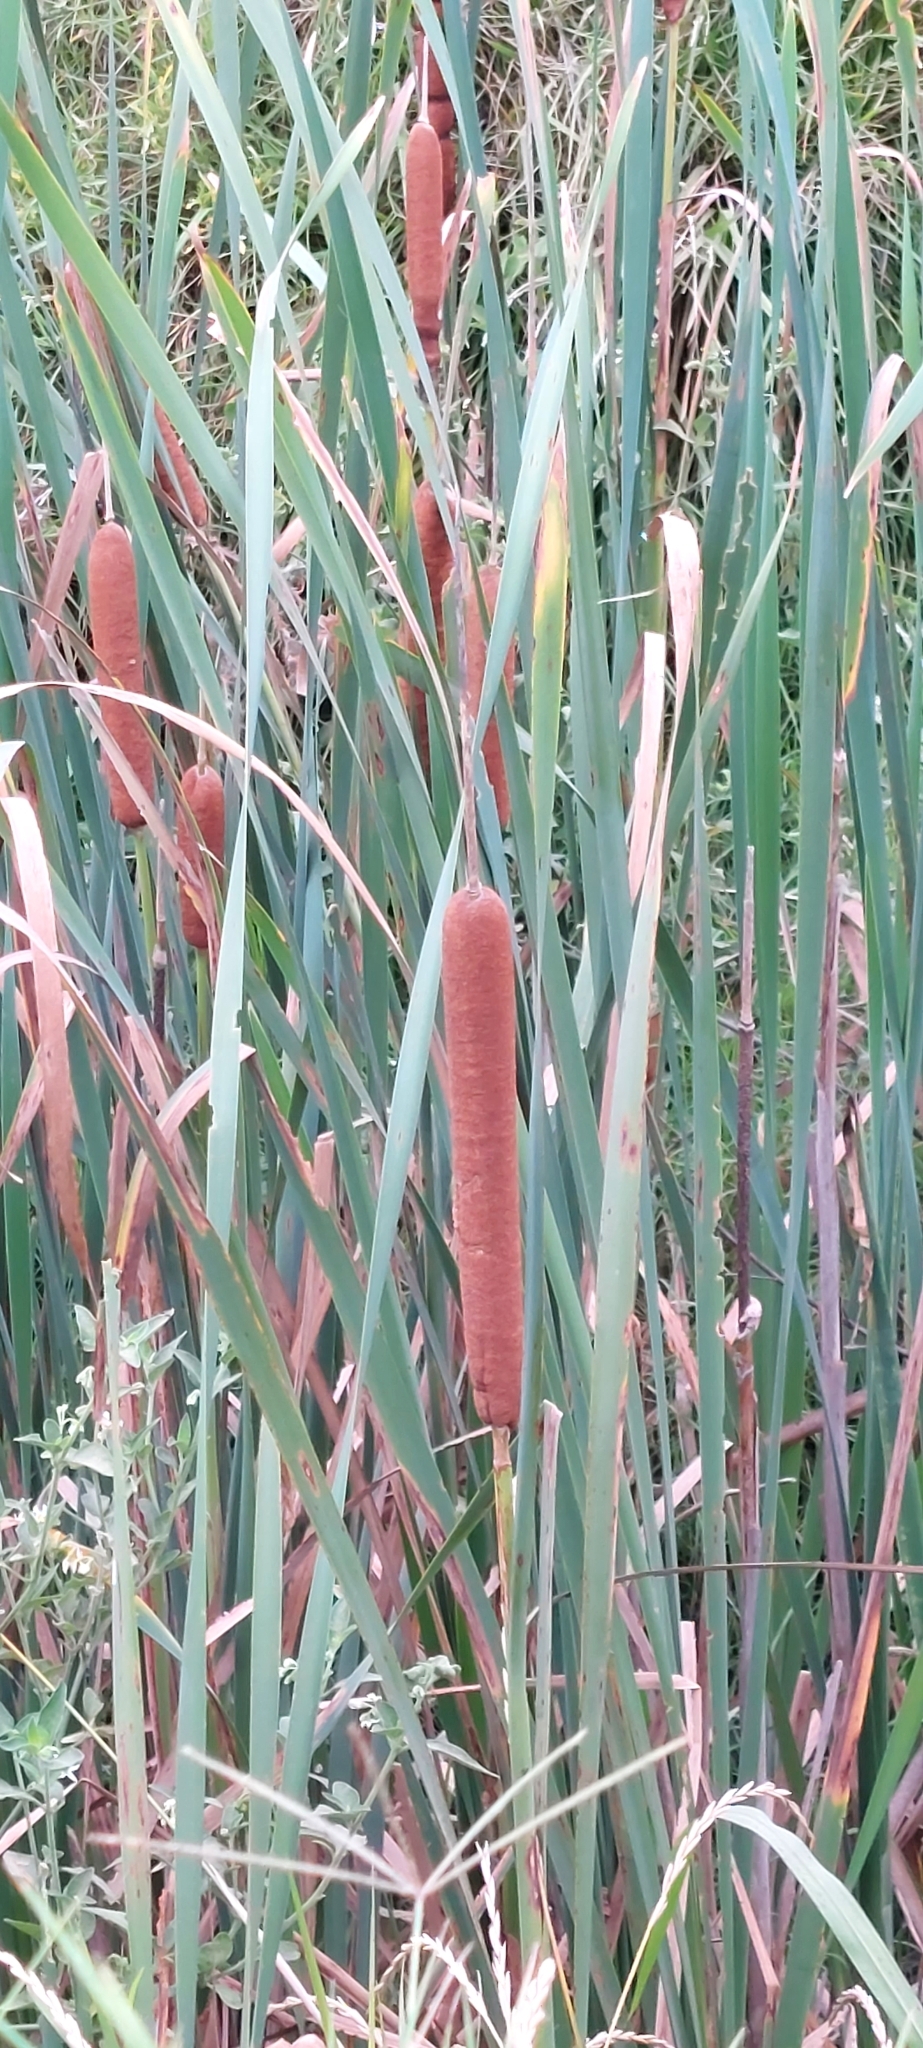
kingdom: Plantae
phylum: Tracheophyta
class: Liliopsida
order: Poales
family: Typhaceae
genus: Typha
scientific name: Typha latifolia
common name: Broadleaf cattail
